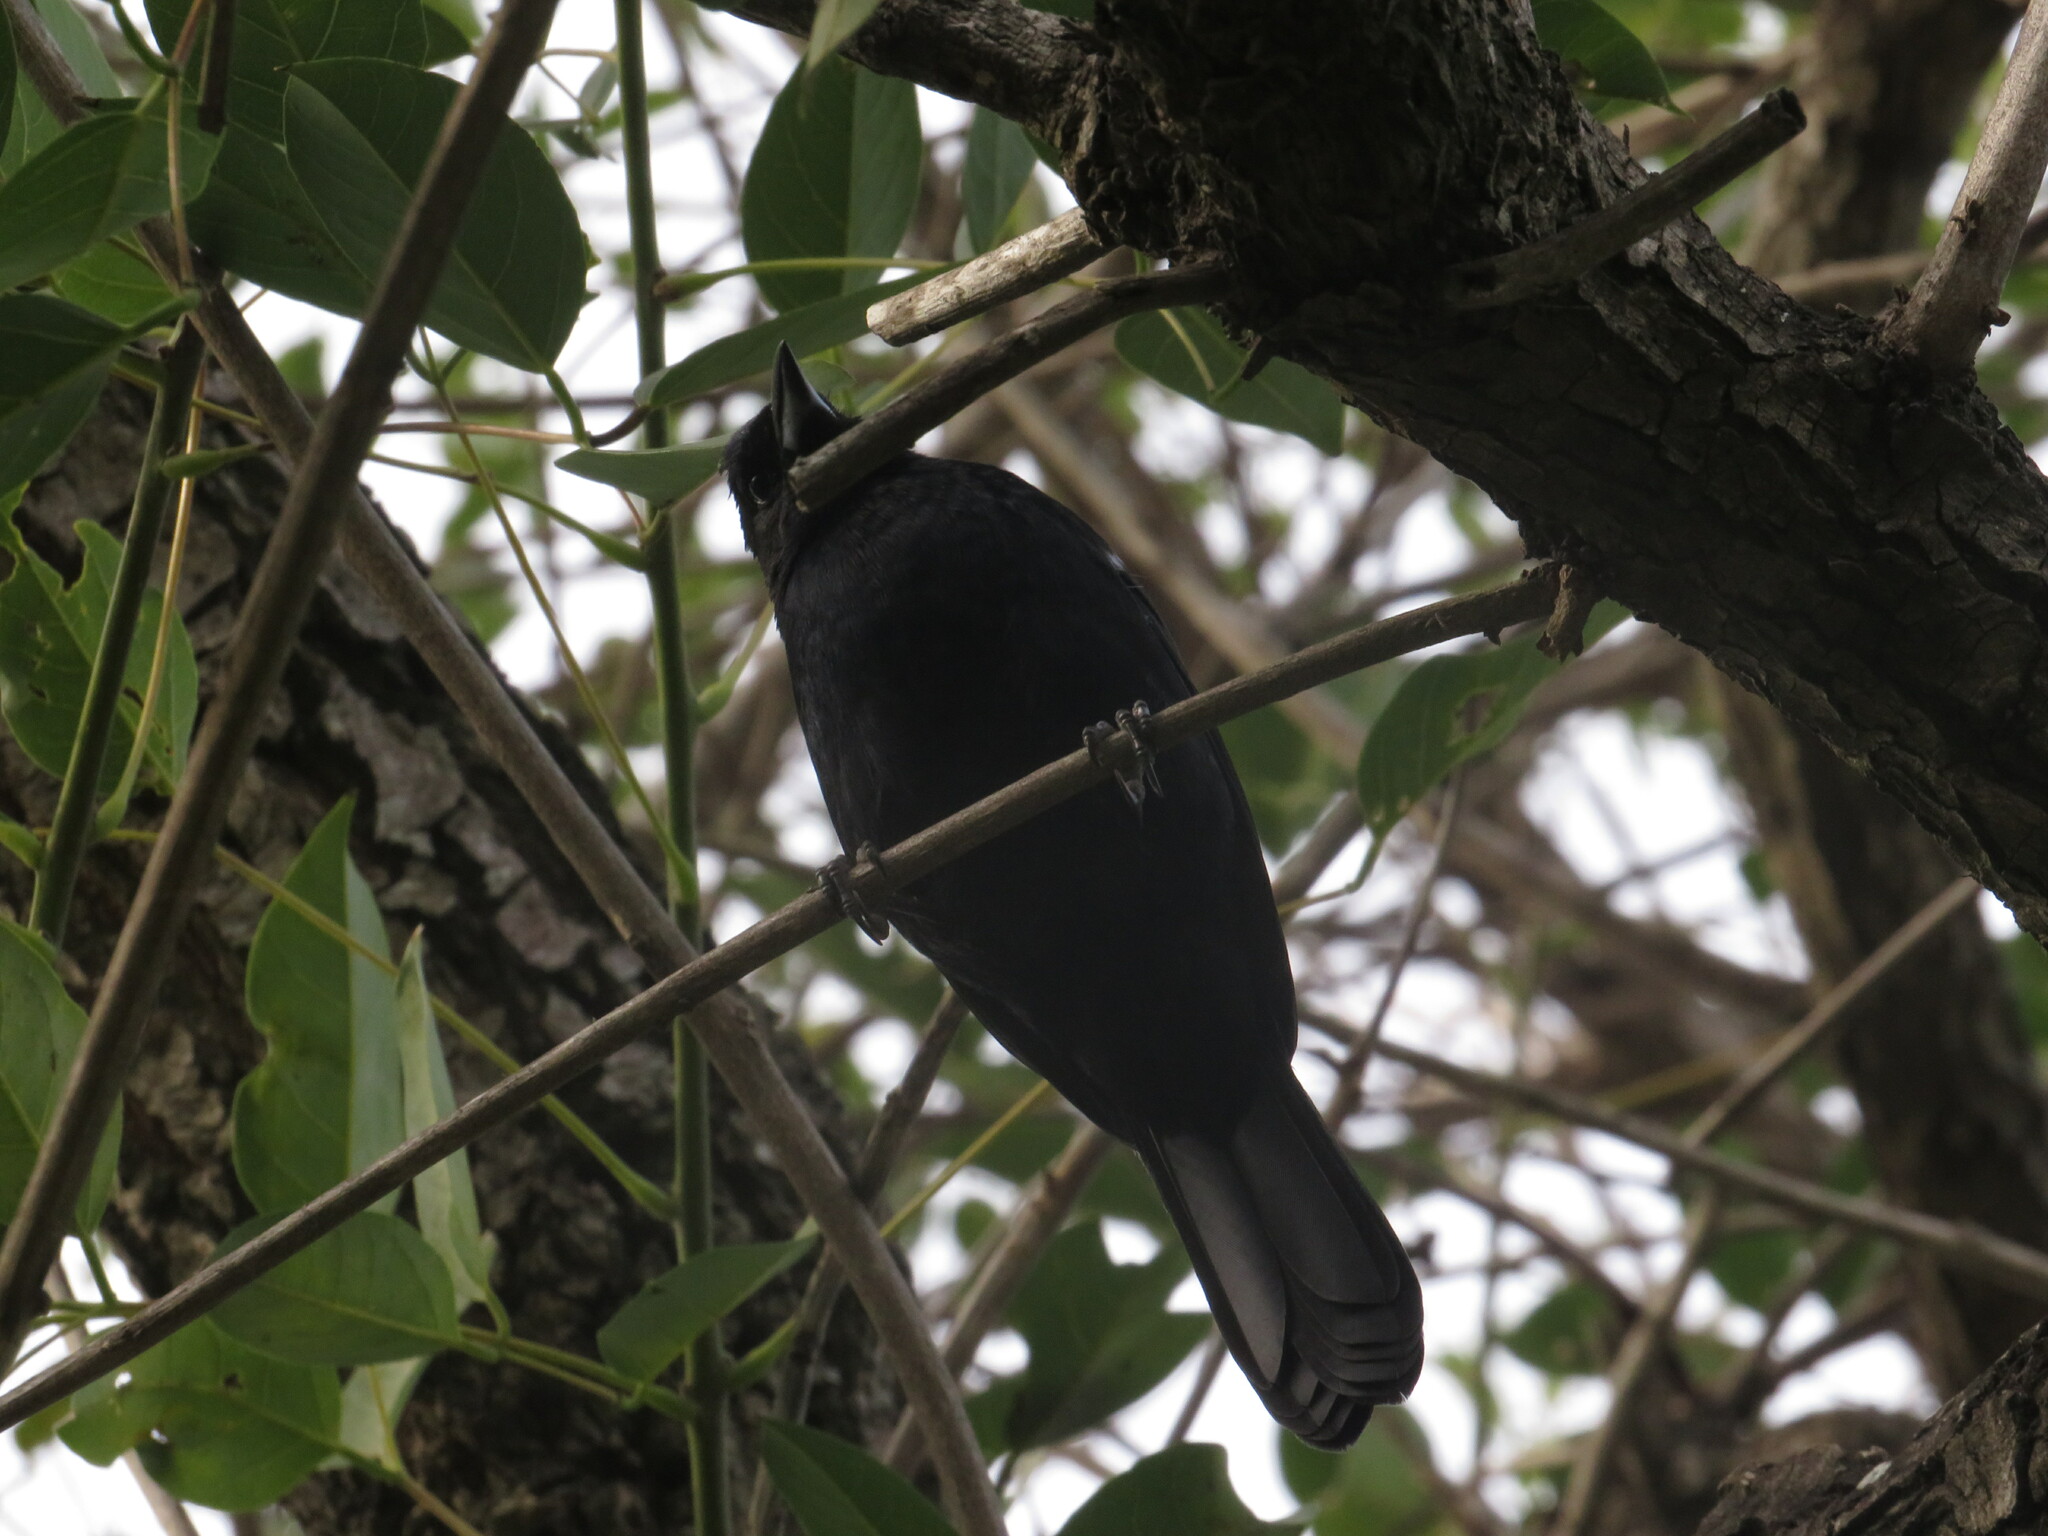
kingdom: Animalia
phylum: Chordata
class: Aves
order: Passeriformes
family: Thraupidae
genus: Tachyphonus
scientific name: Tachyphonus rufus
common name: White-lined tanager
